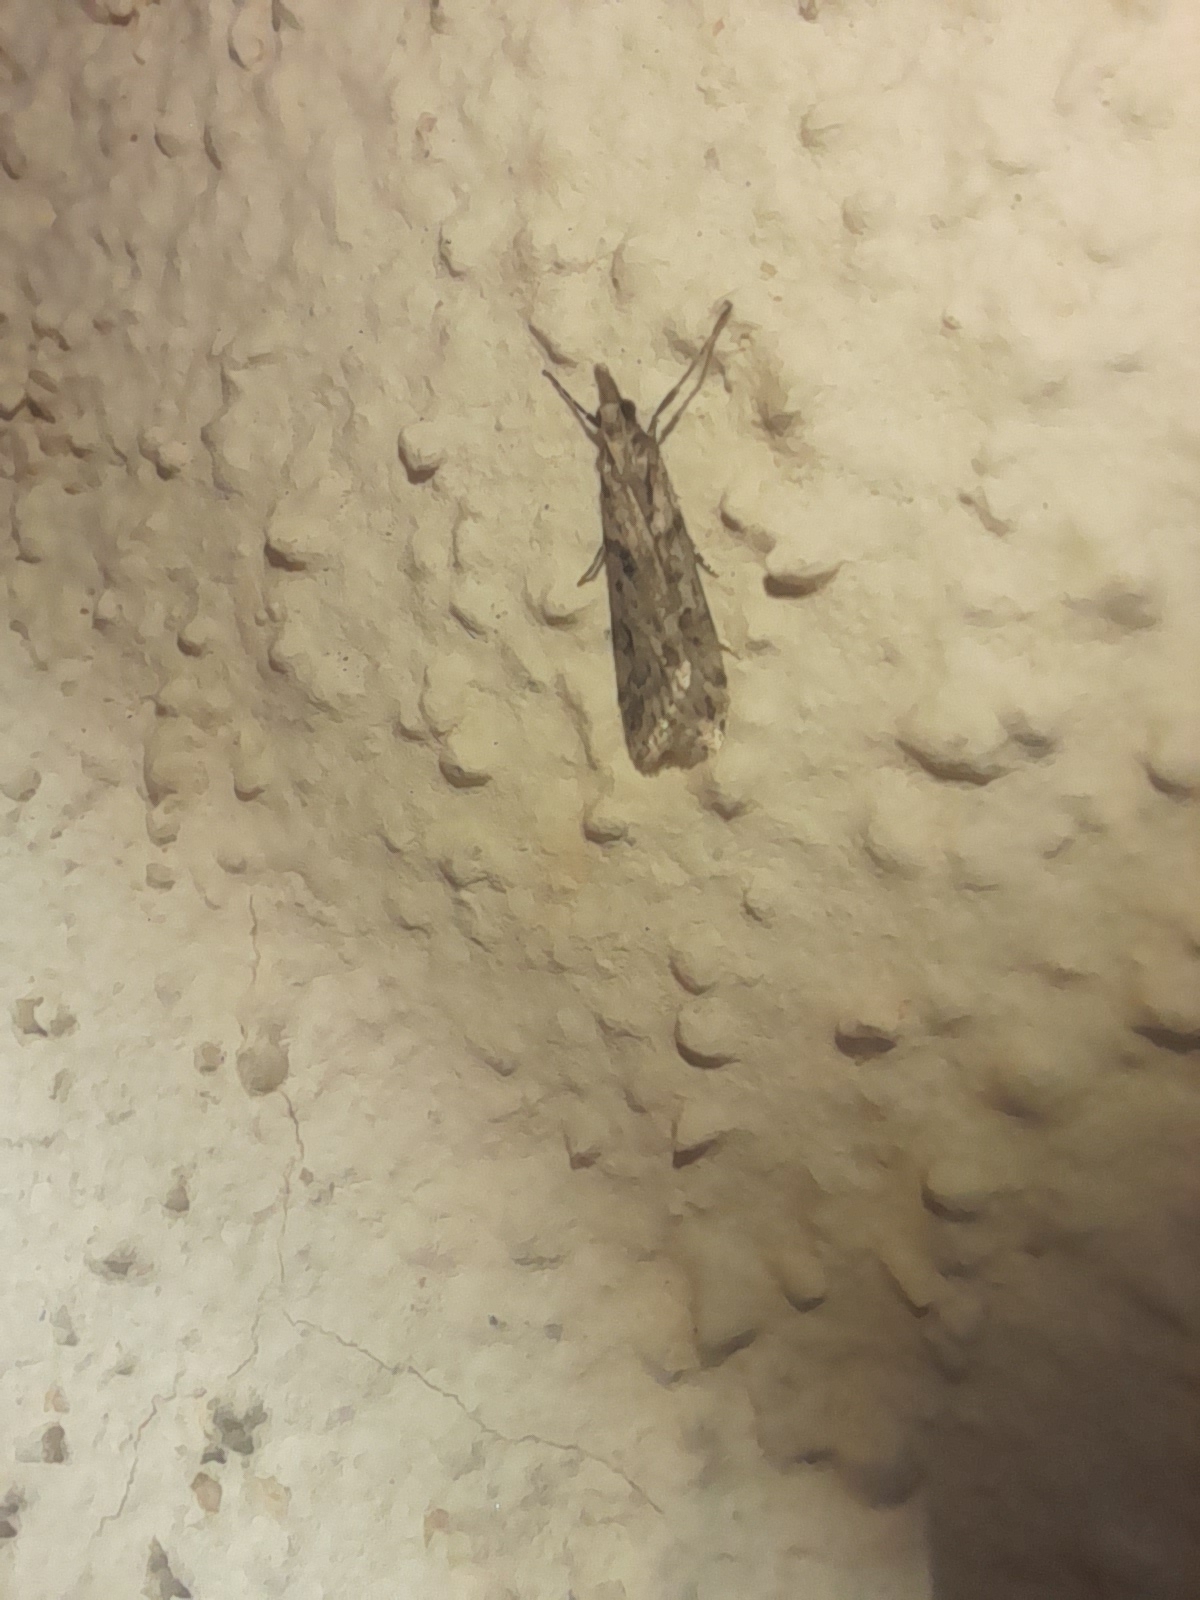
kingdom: Animalia
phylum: Arthropoda
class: Insecta
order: Lepidoptera
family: Crambidae
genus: Eudonia
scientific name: Eudonia angustea
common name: Narrow-winged grey
